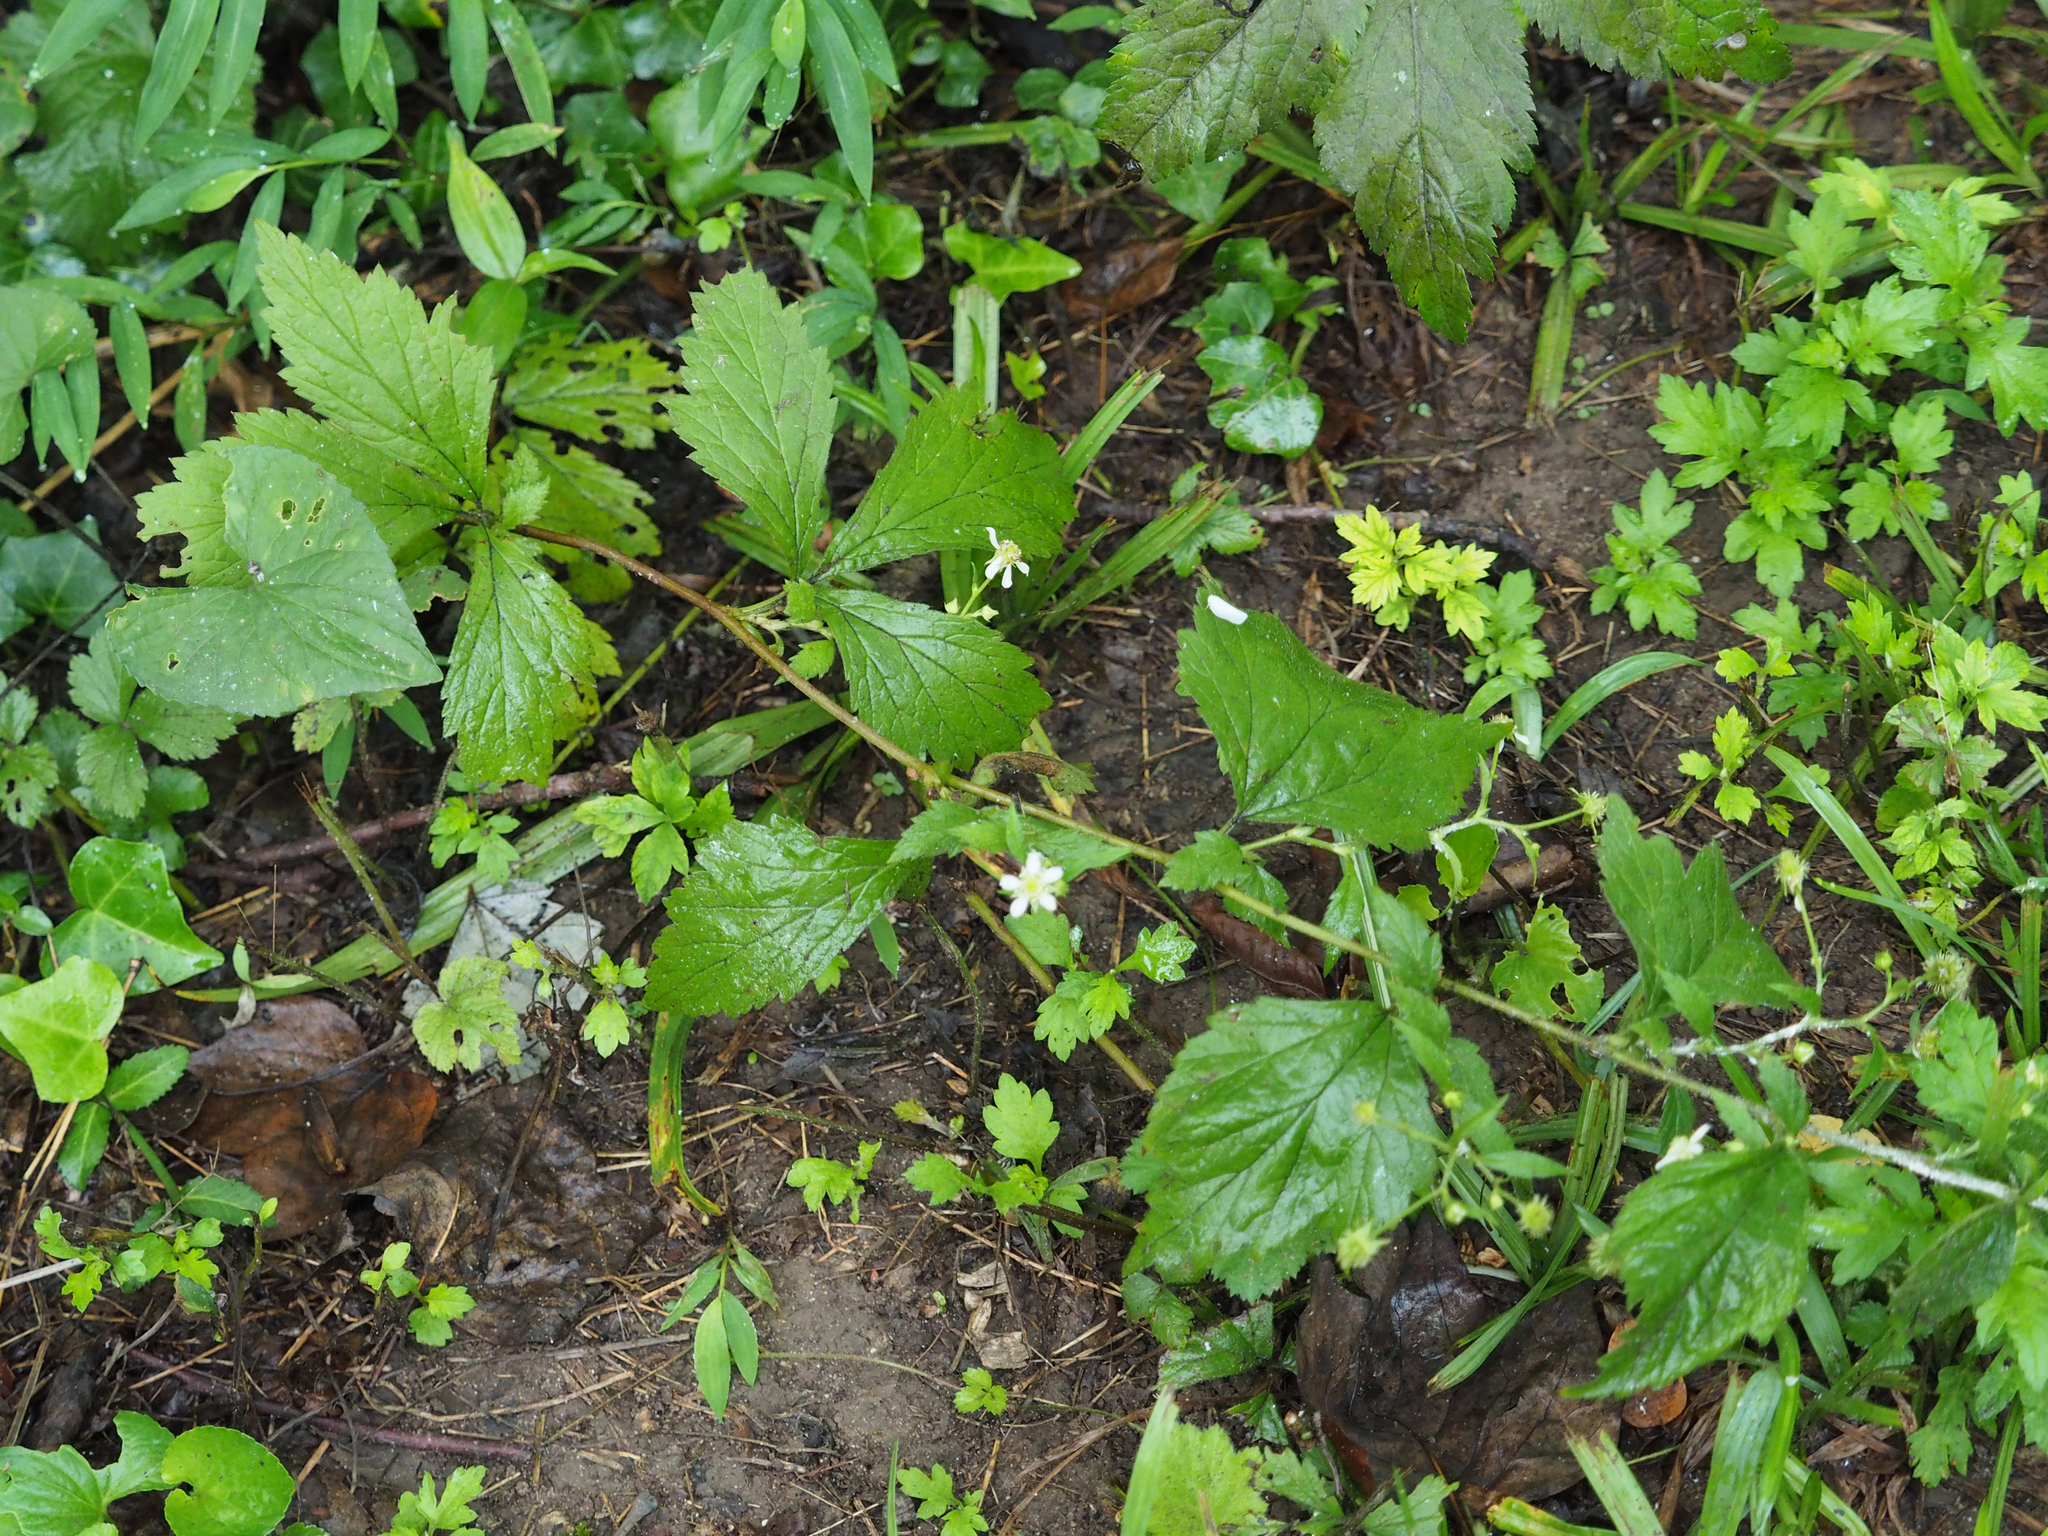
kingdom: Plantae
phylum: Tracheophyta
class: Magnoliopsida
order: Rosales
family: Rosaceae
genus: Geum
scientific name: Geum canadense
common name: White avens
